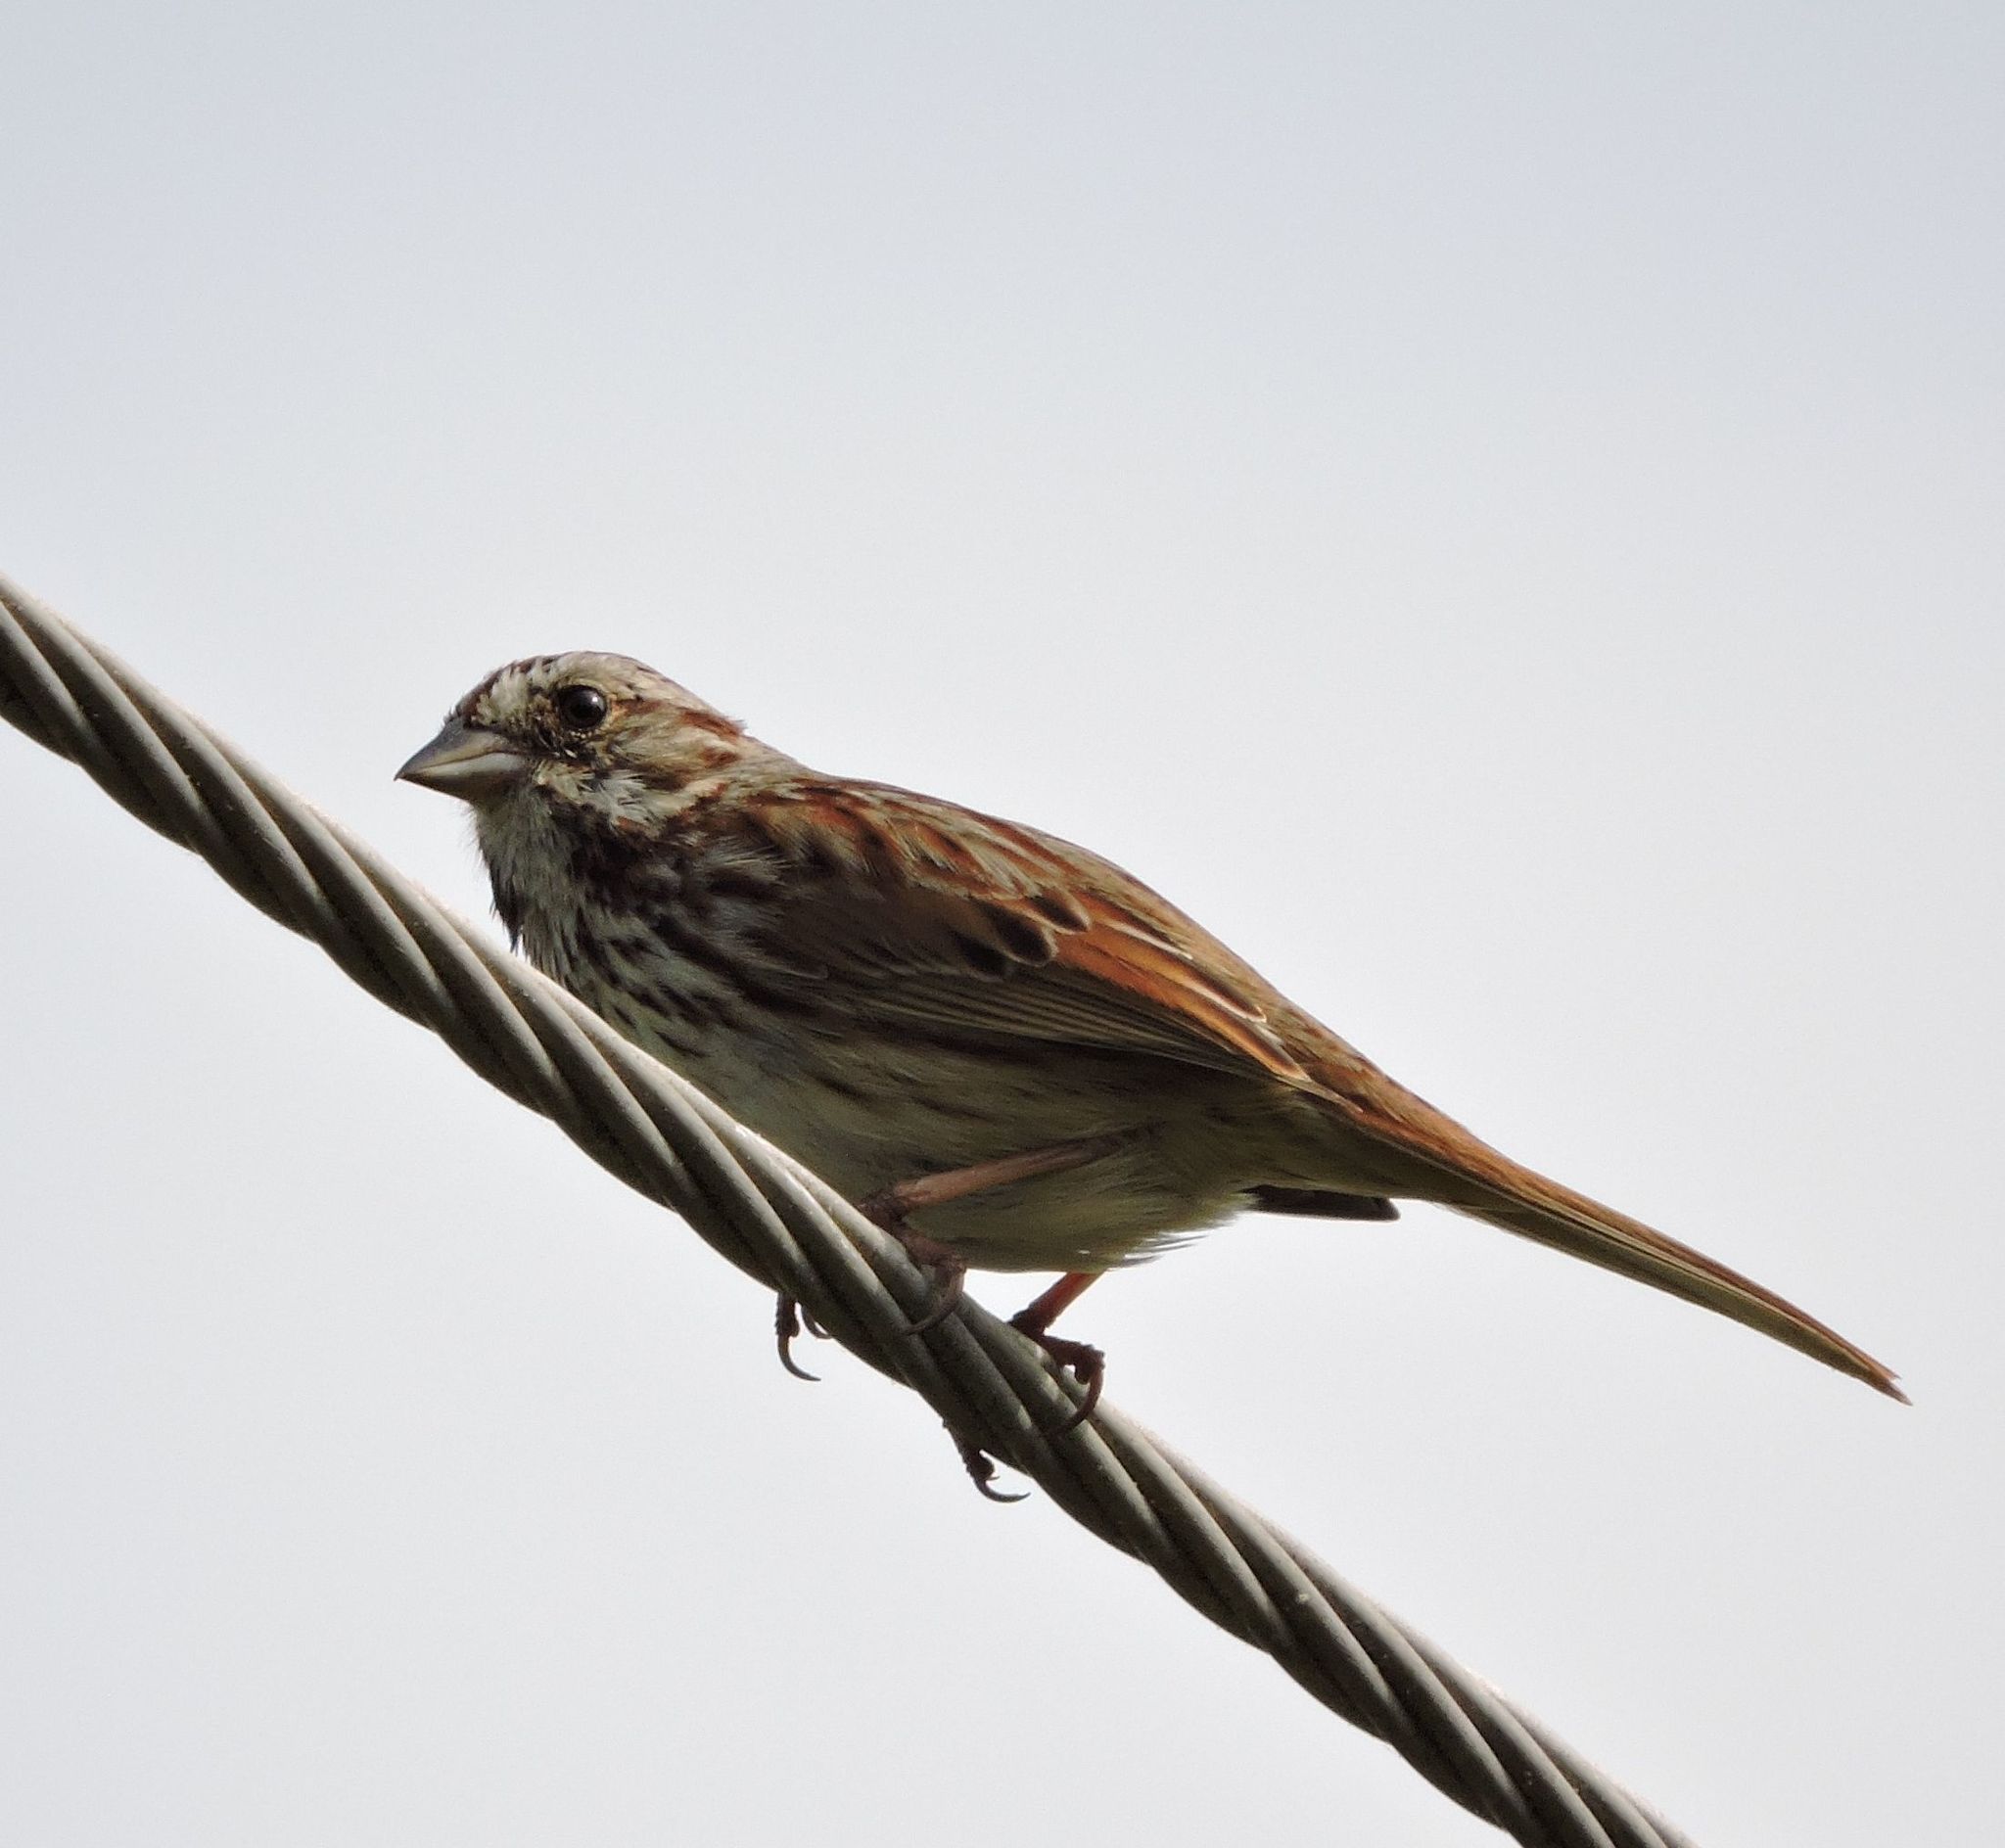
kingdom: Animalia
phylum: Chordata
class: Aves
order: Passeriformes
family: Passerellidae
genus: Melospiza
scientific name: Melospiza melodia
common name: Song sparrow
